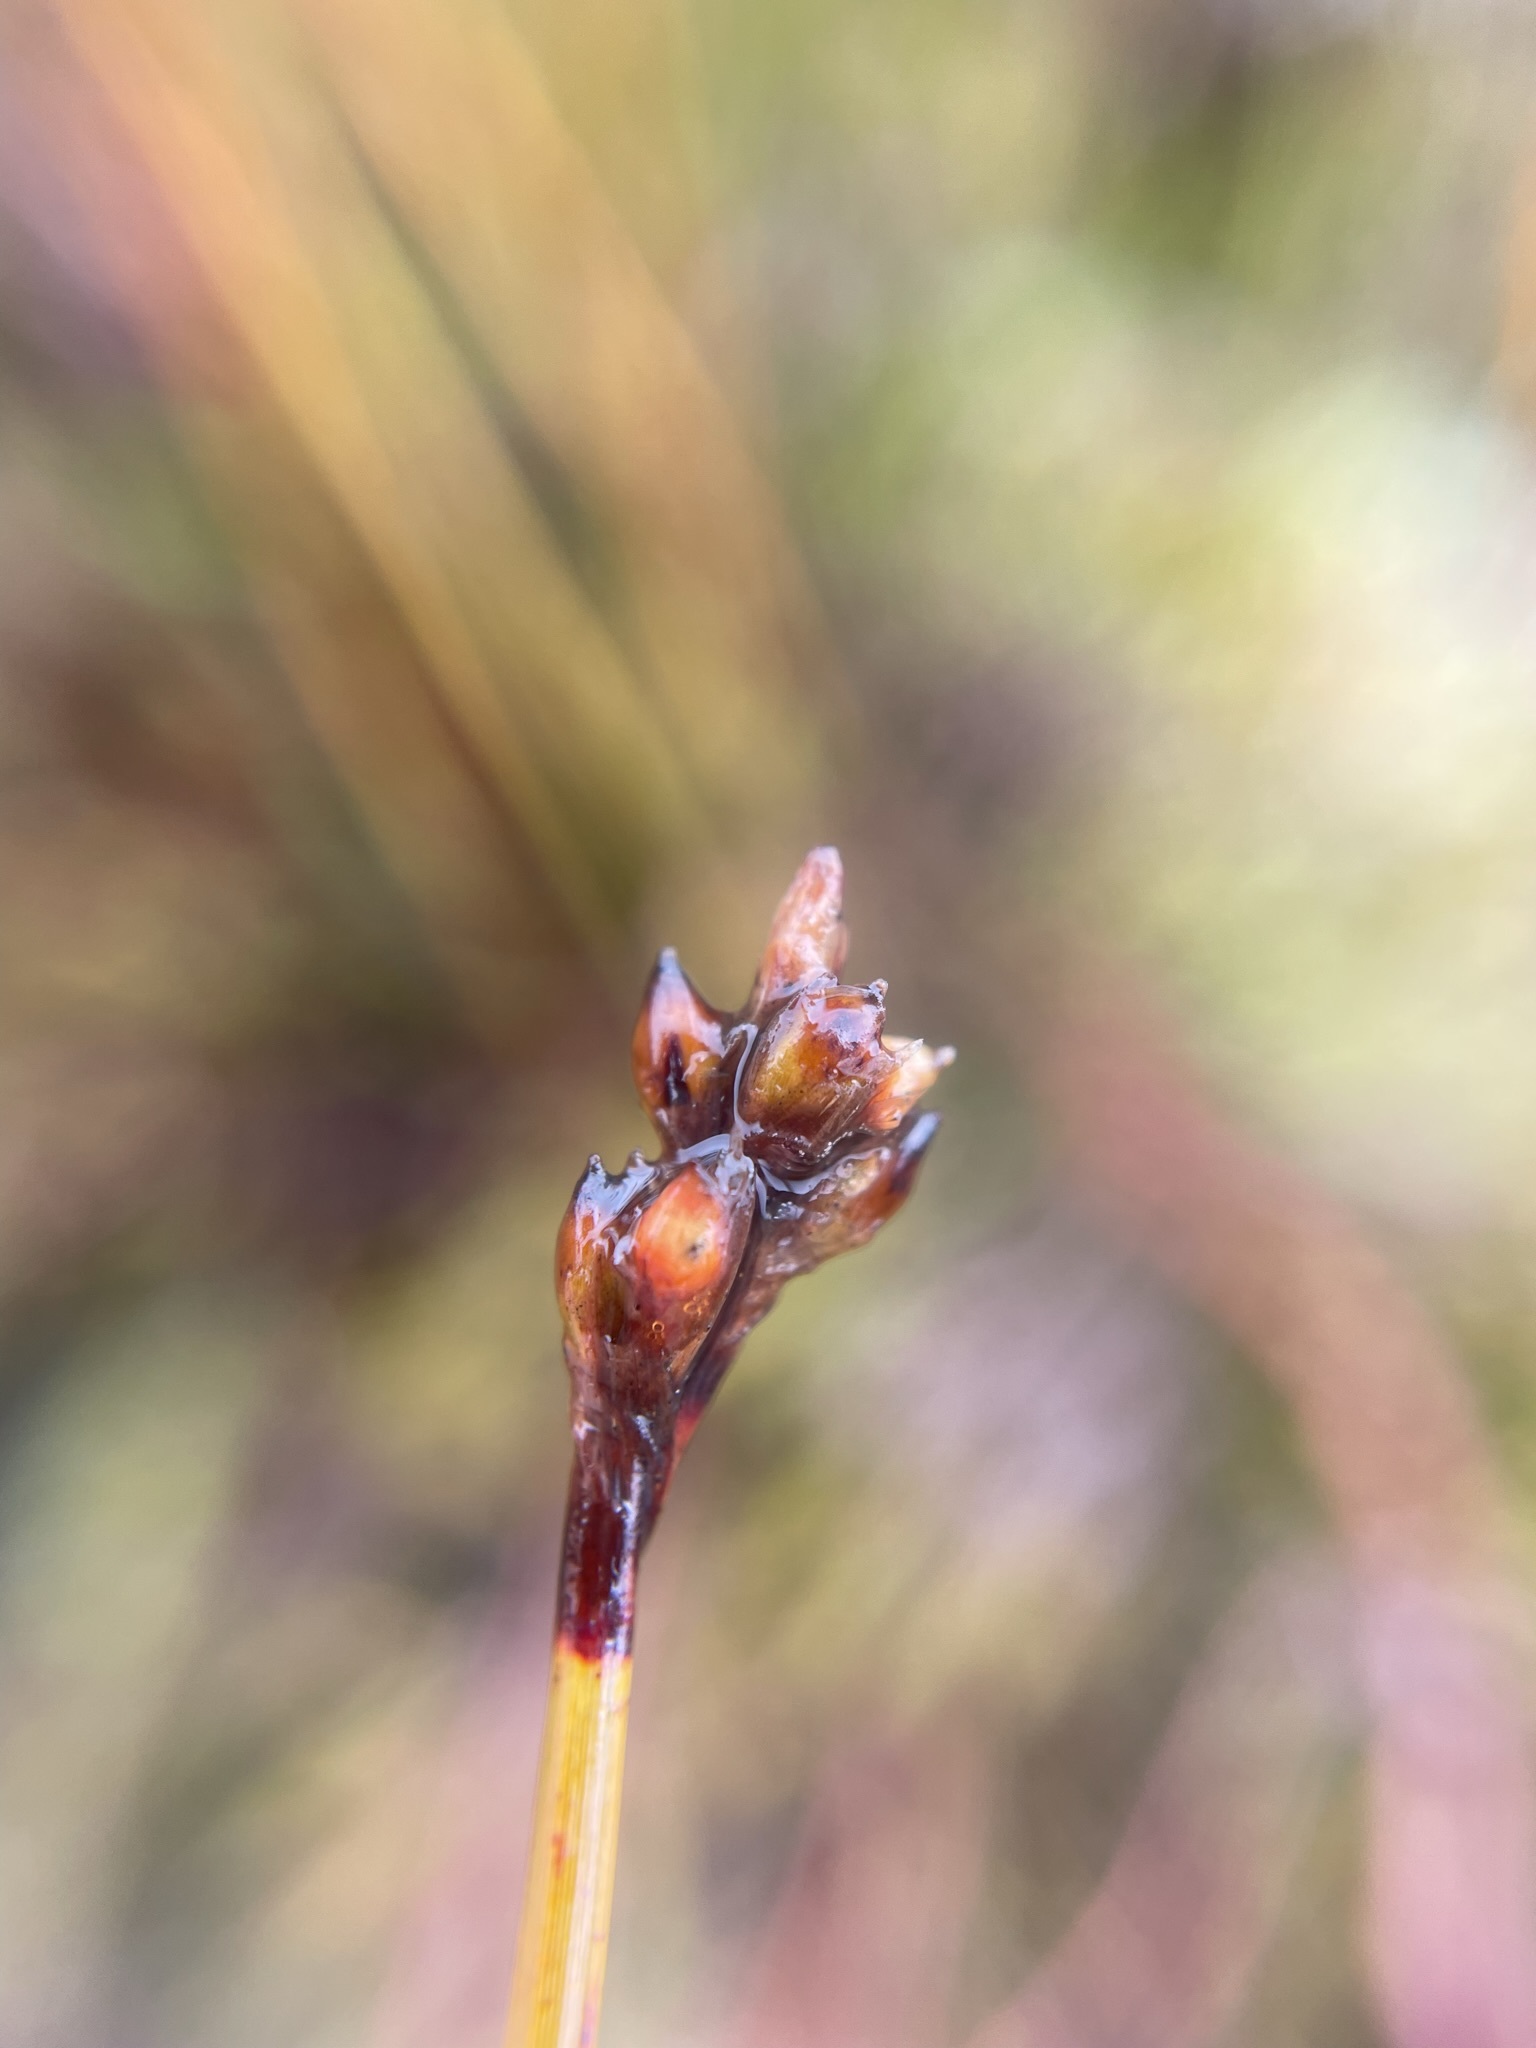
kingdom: Plantae
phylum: Tracheophyta
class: Liliopsida
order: Poales
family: Cyperaceae
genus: Lepidosperma
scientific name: Lepidosperma australe
